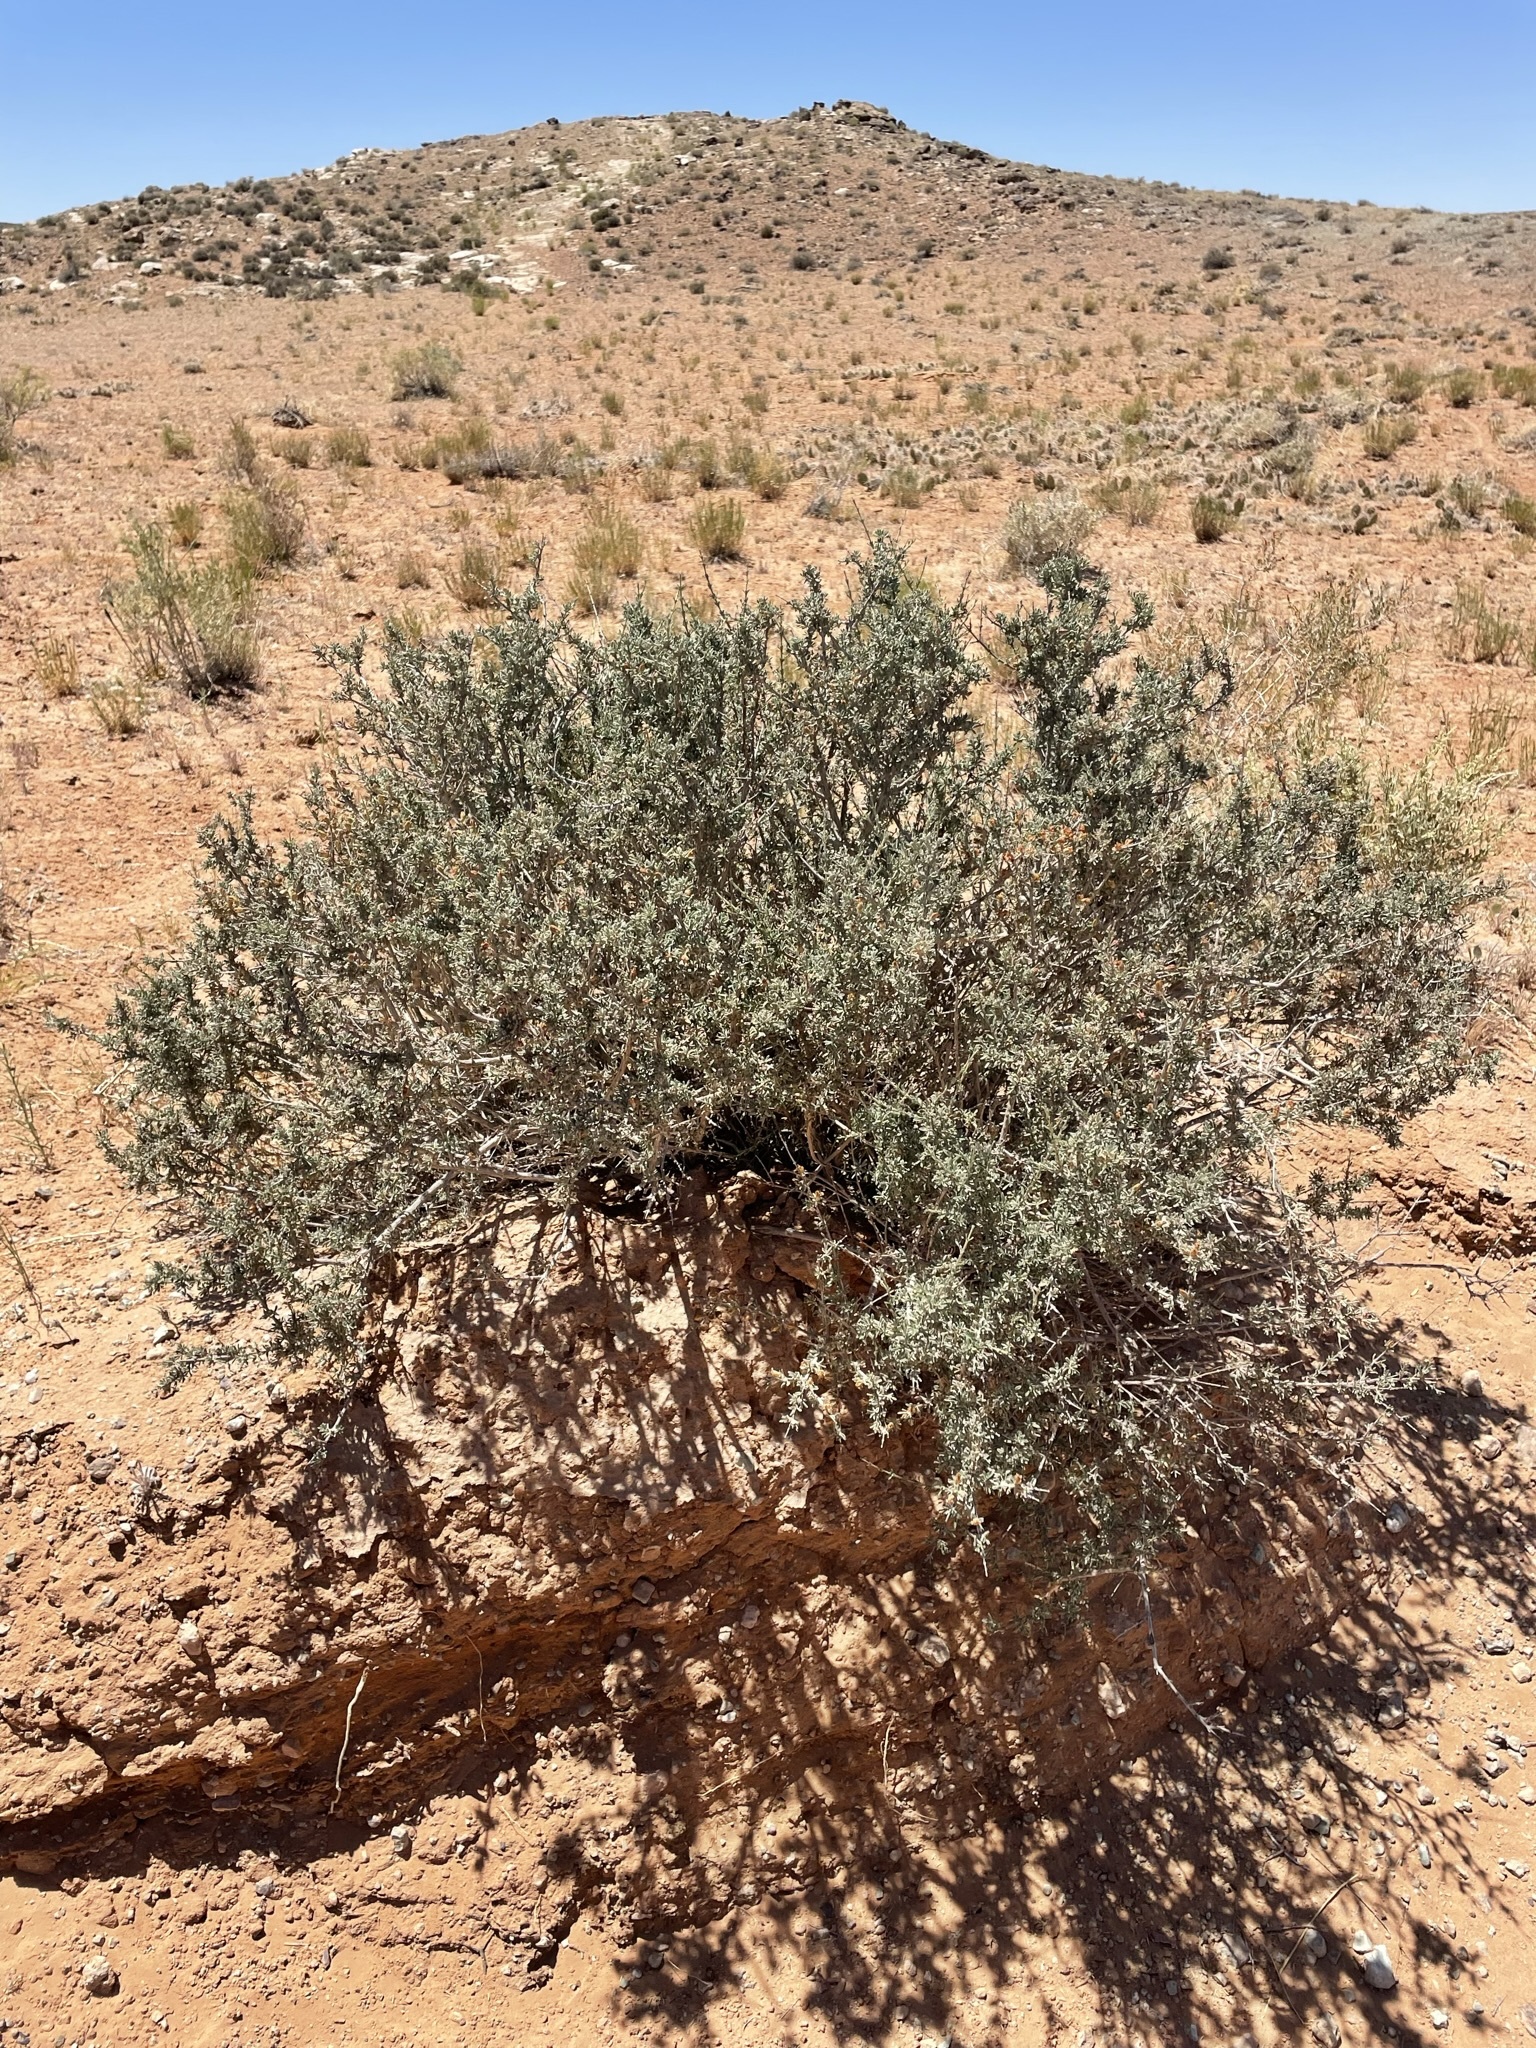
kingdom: Plantae
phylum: Tracheophyta
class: Magnoliopsida
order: Rosales
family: Rosaceae
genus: Coleogyne
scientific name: Coleogyne ramosissima
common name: Blackbrush
